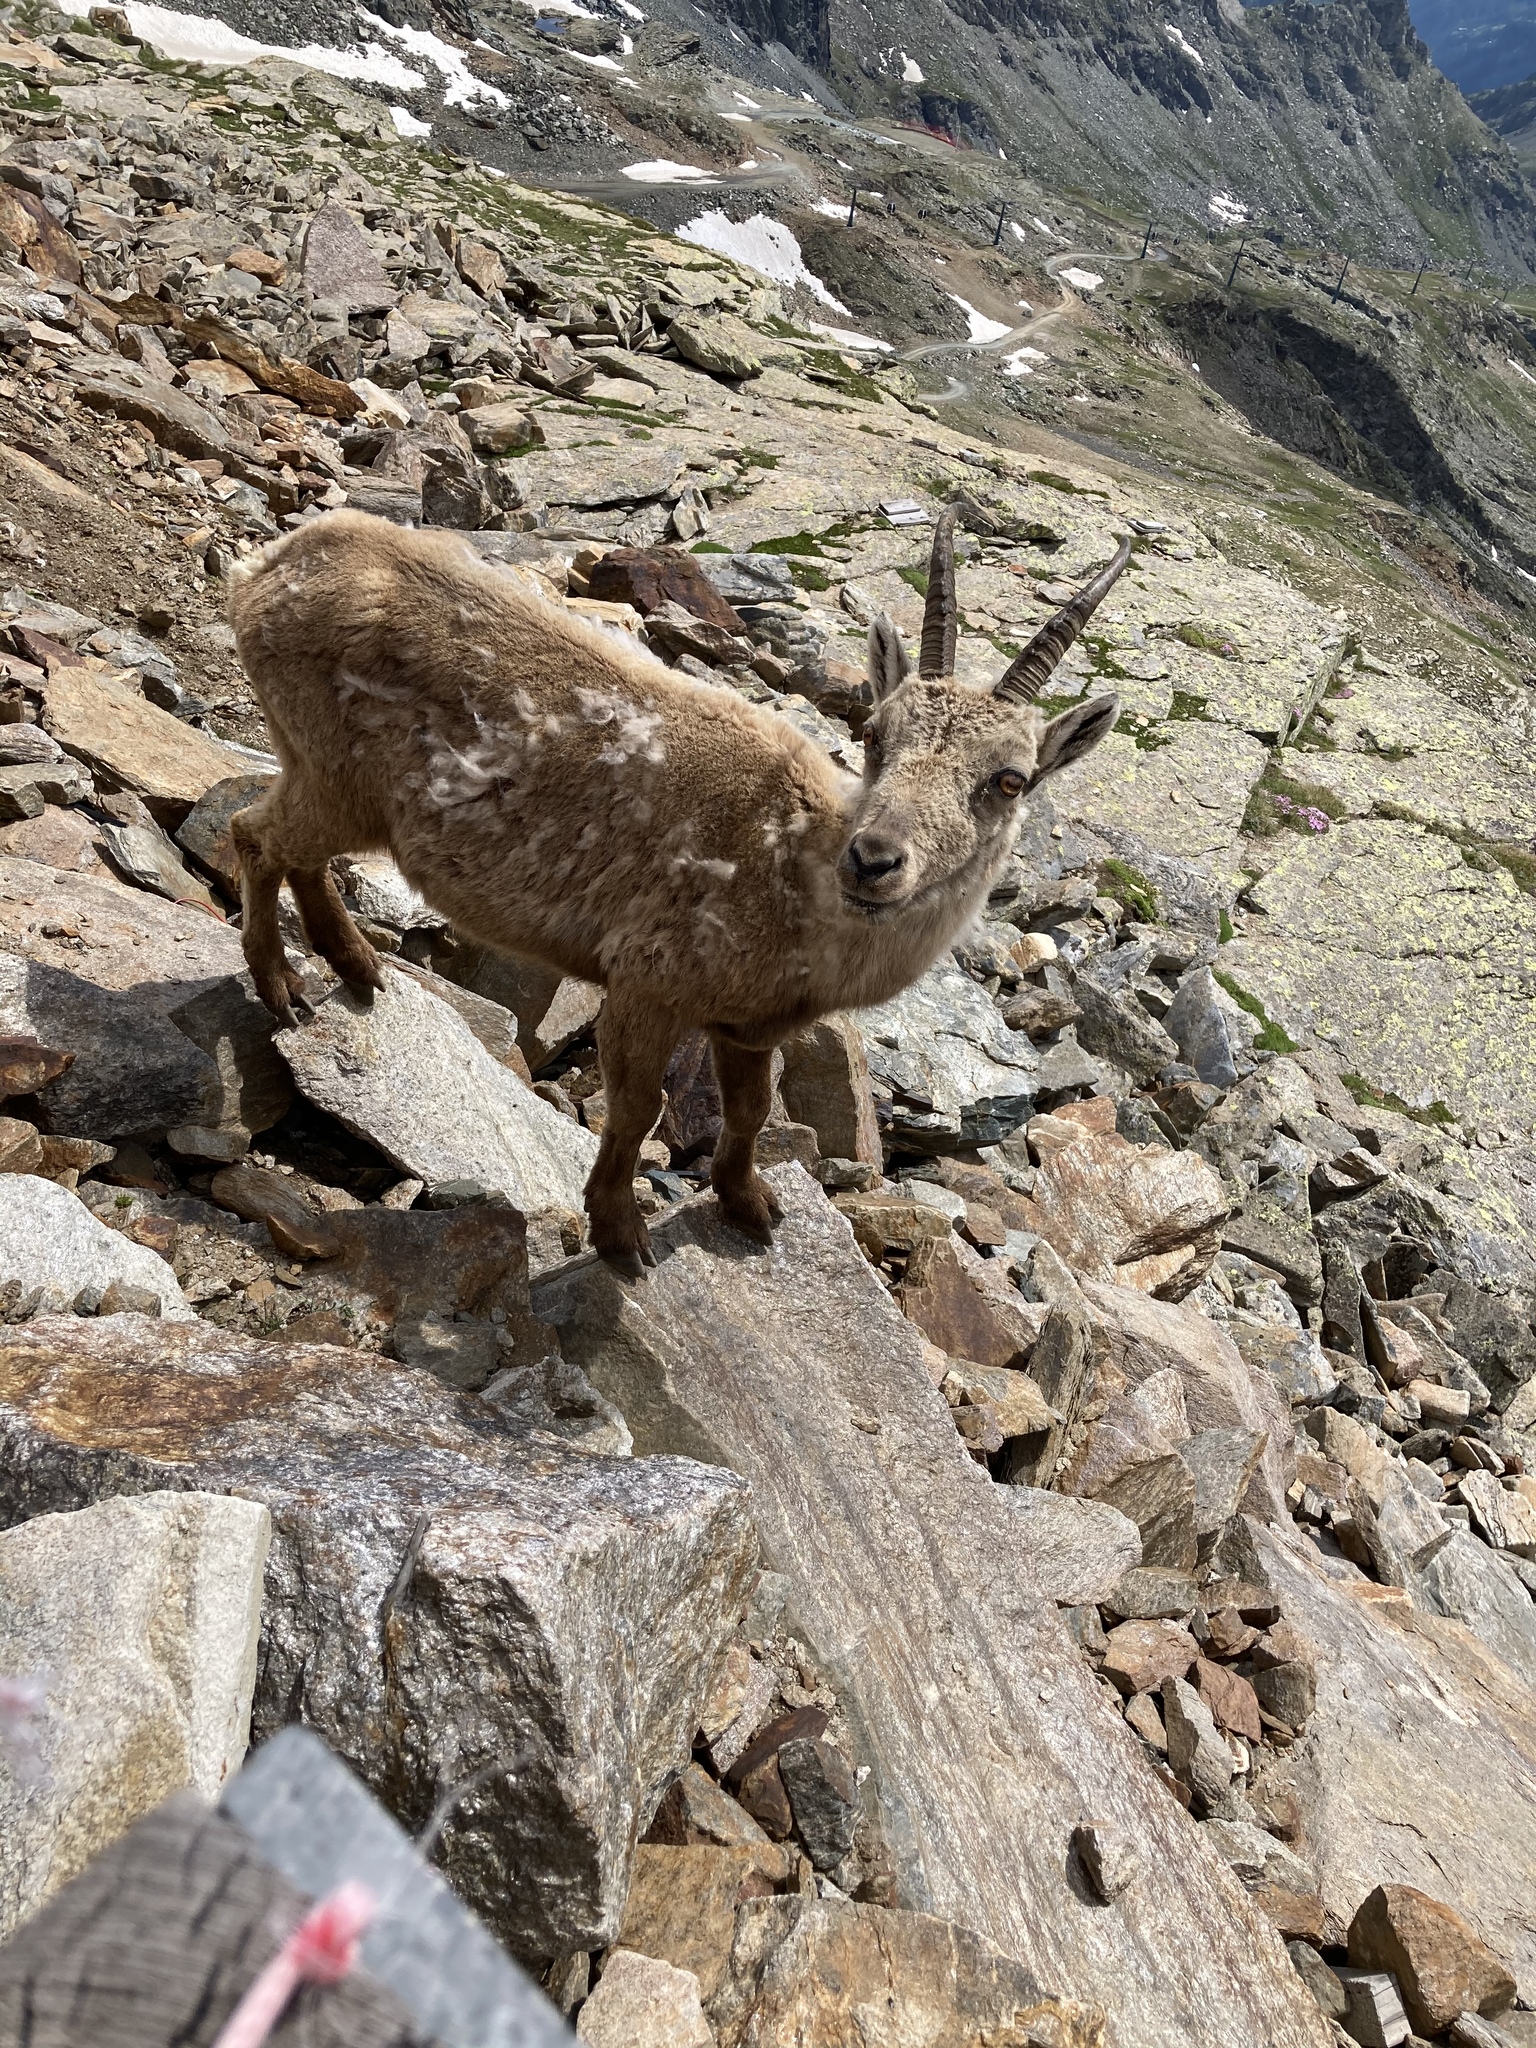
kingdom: Animalia
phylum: Chordata
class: Mammalia
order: Artiodactyla
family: Bovidae
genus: Capra
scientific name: Capra ibex
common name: Alpine ibex
